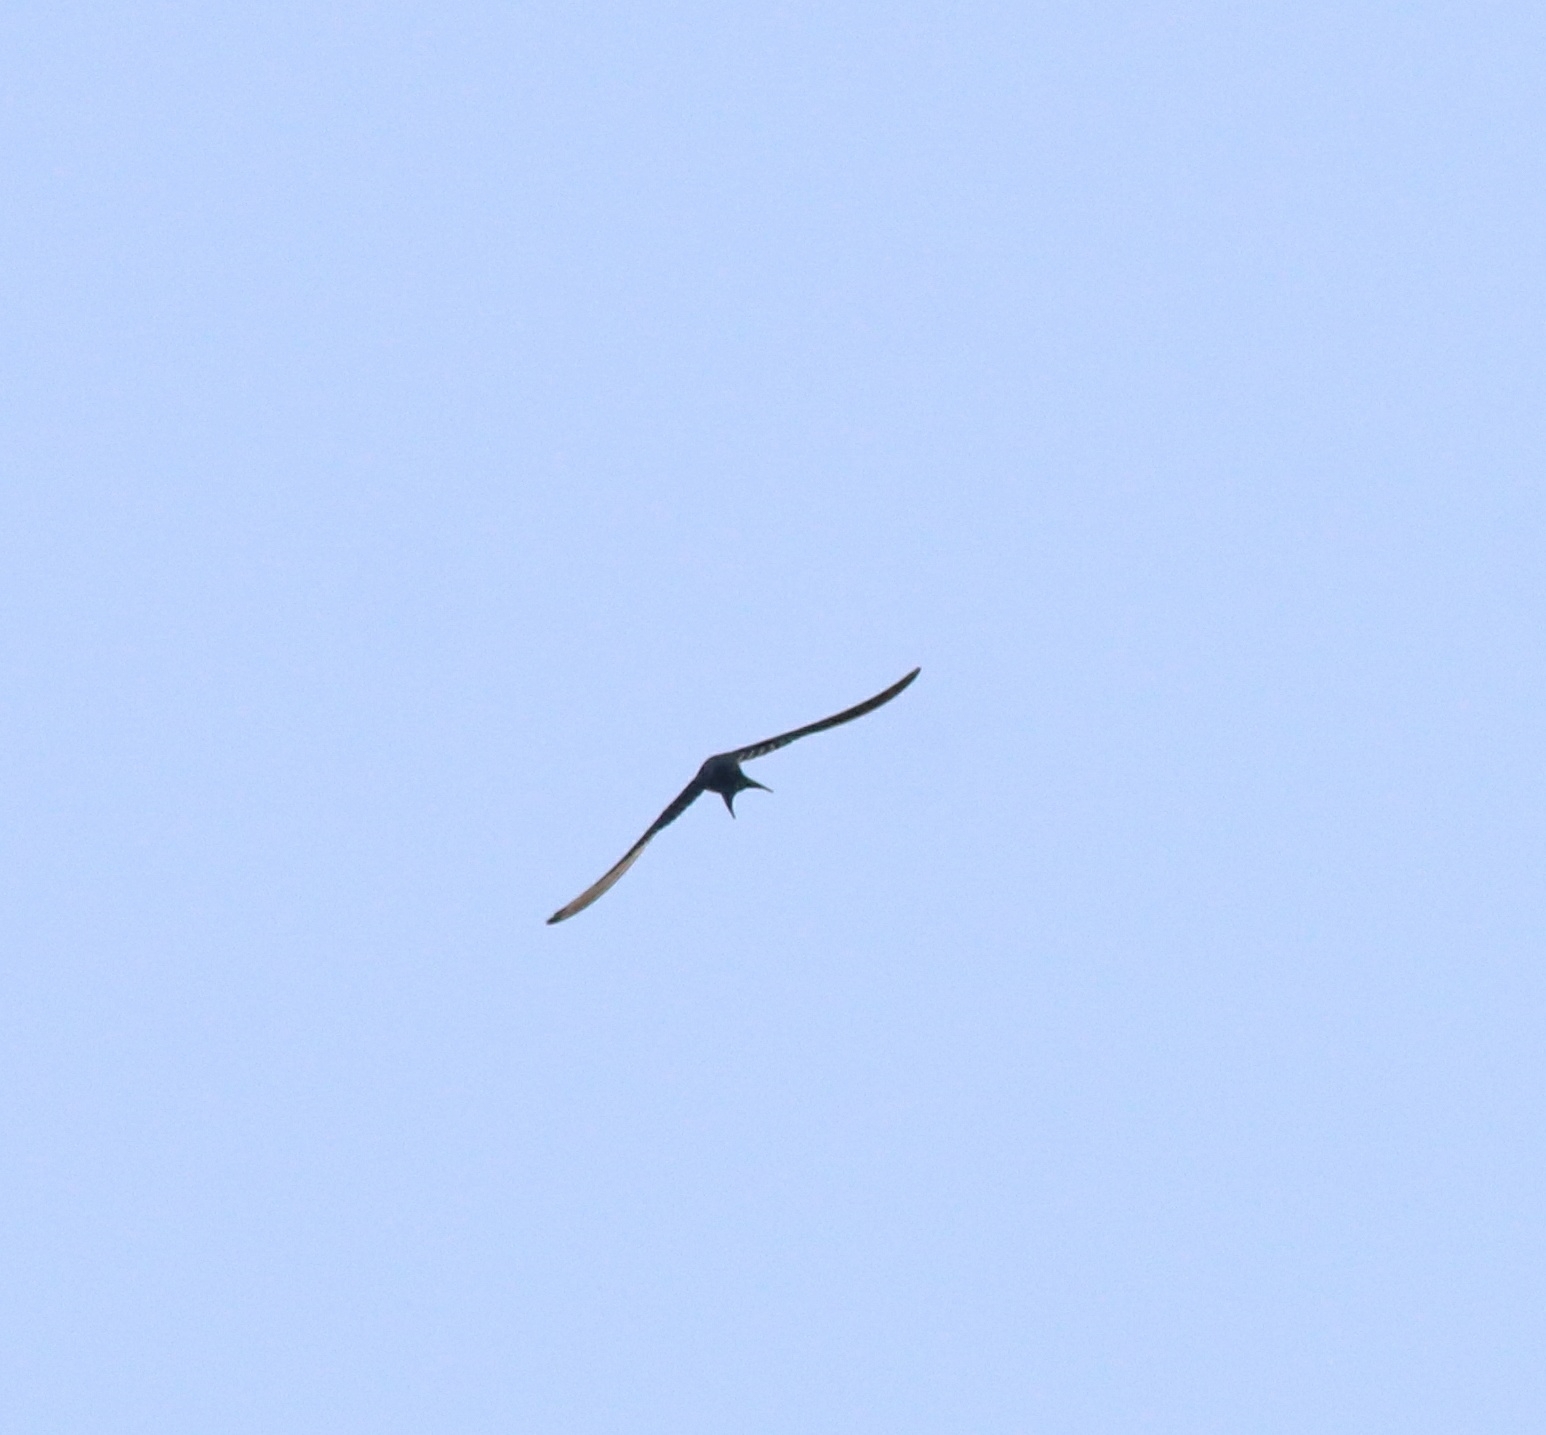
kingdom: Animalia
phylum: Chordata
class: Aves
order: Passeriformes
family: Hirundinidae
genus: Hirundo
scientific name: Hirundo smithii
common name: Wire-tailed swallow
